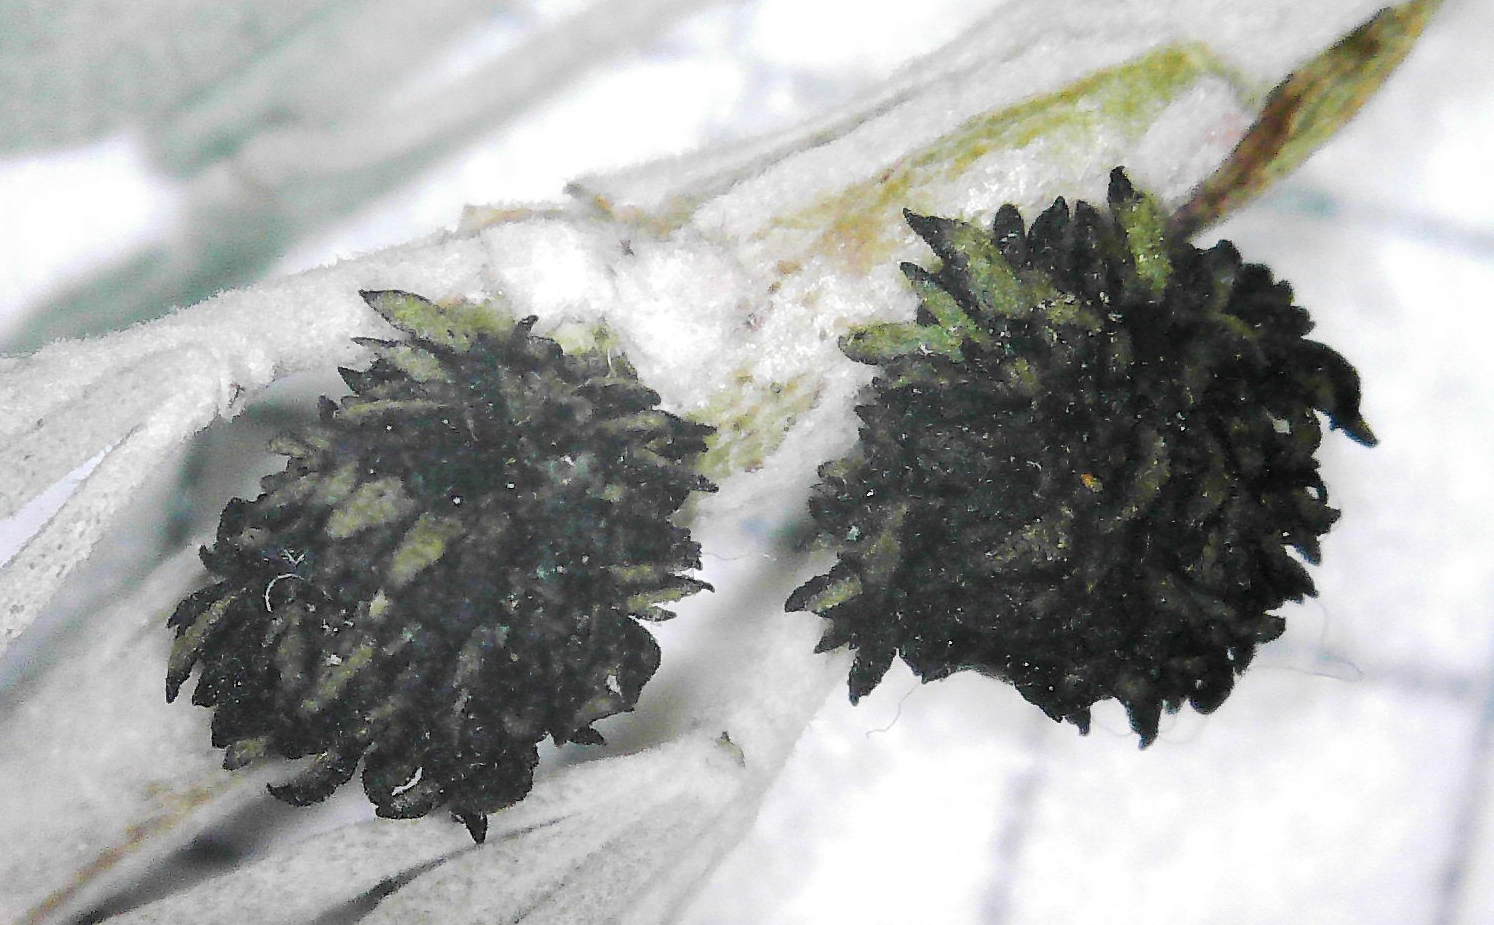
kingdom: Animalia
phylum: Arthropoda
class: Insecta
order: Diptera
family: Cecidomyiidae
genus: Rhopalomyia
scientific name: Rhopalomyia medusa
